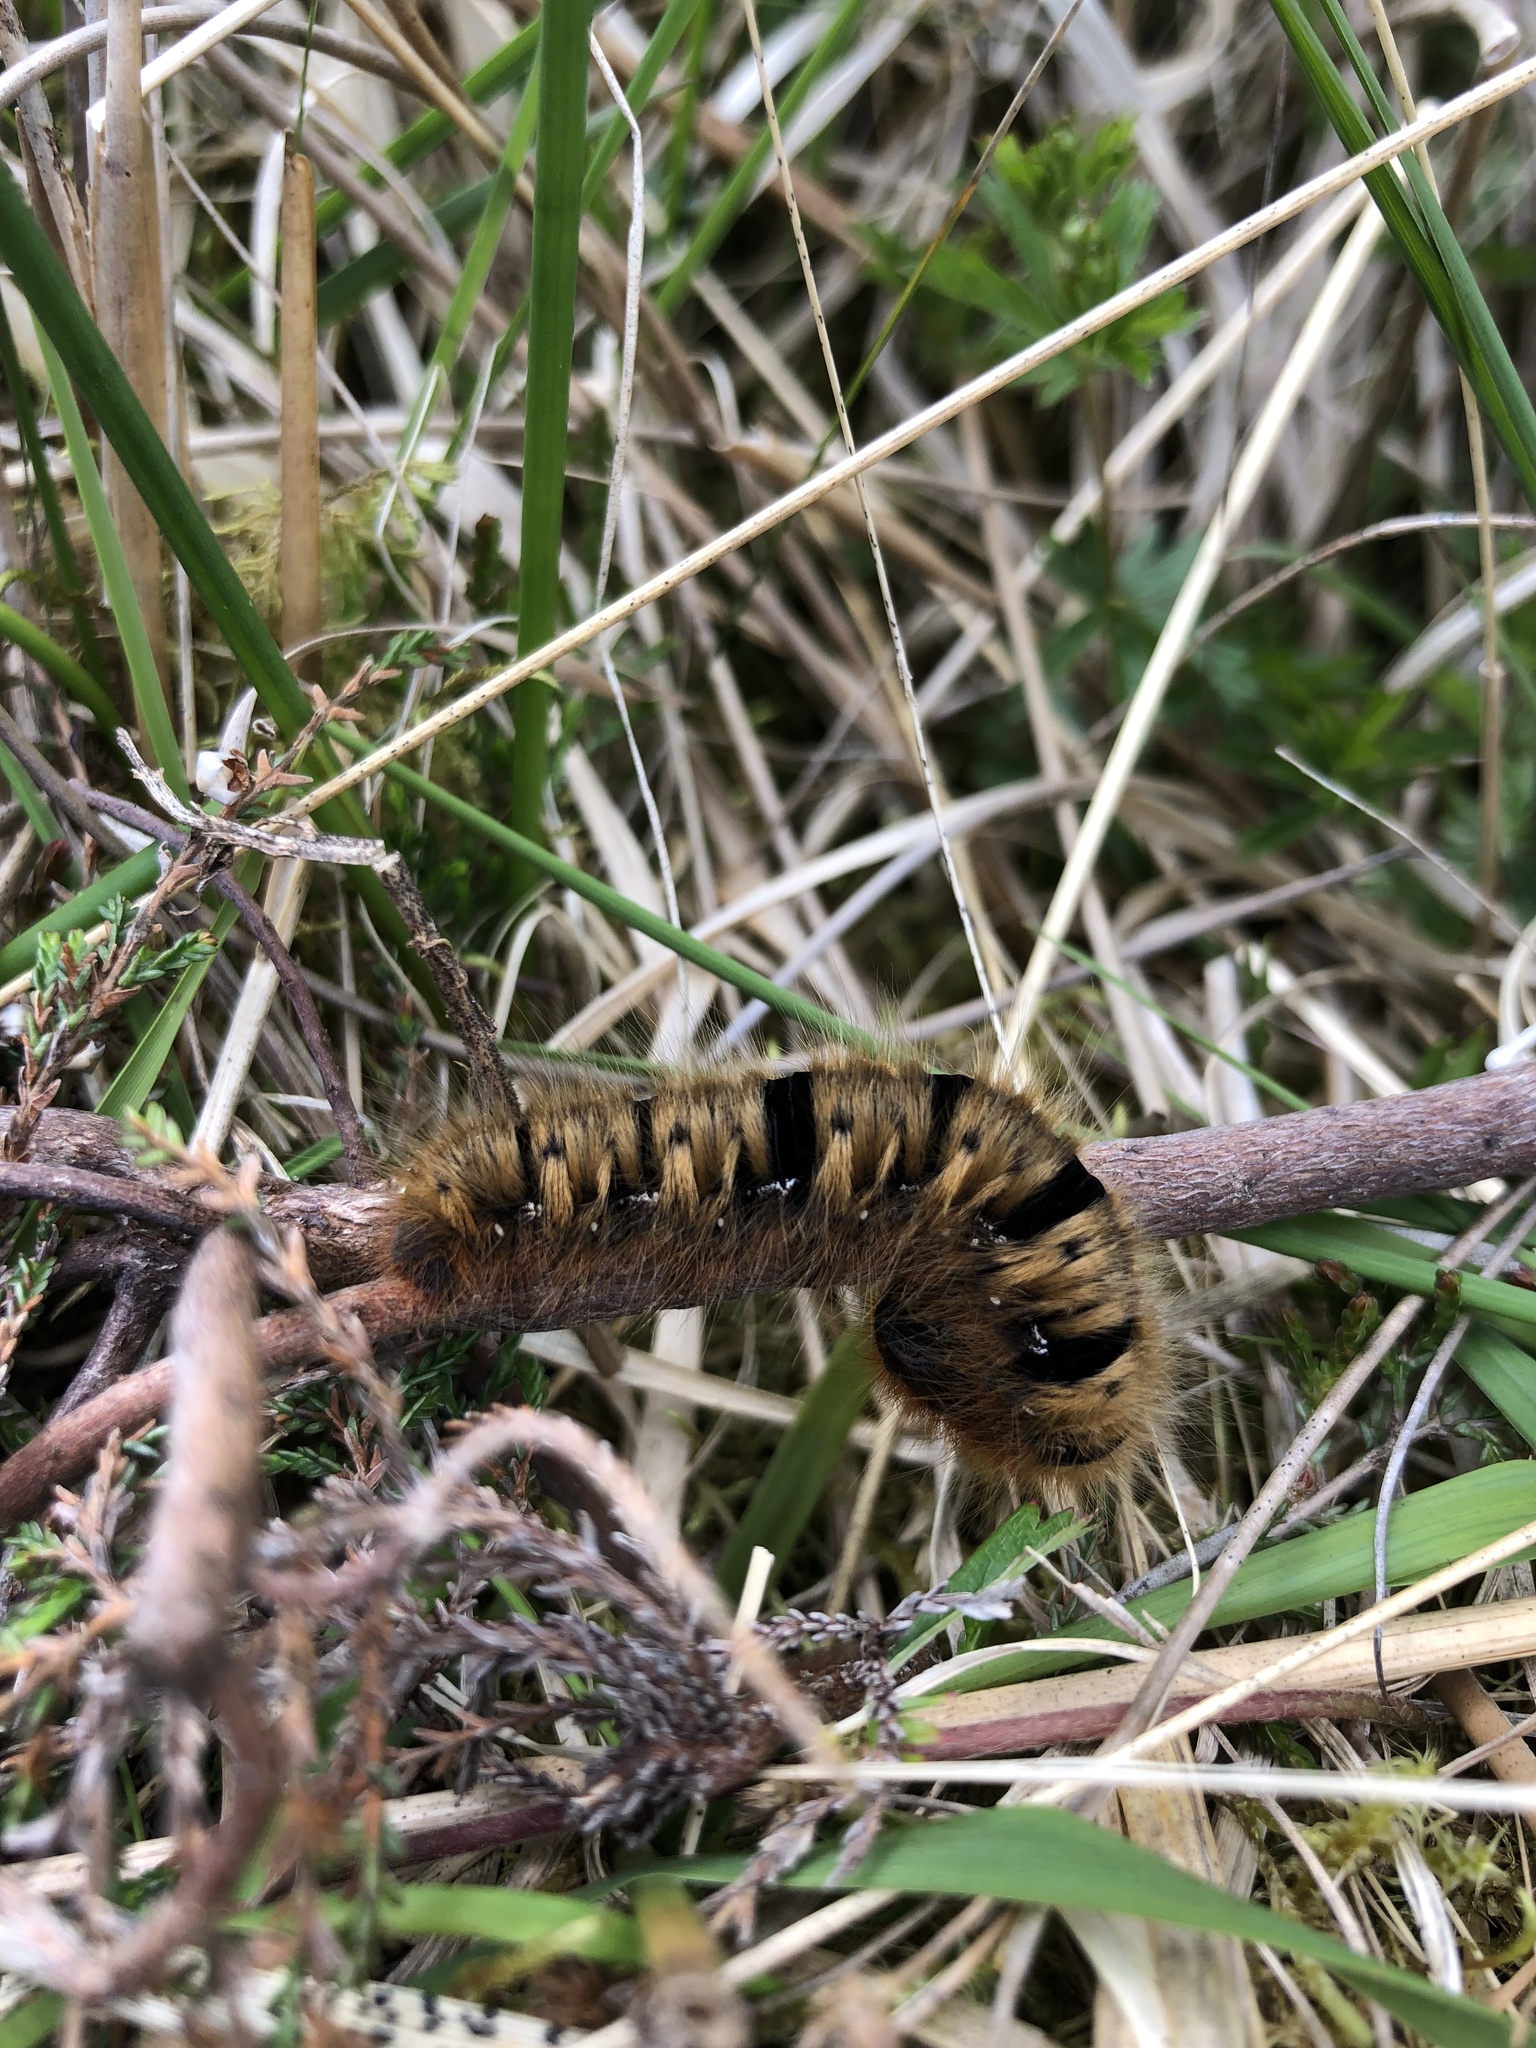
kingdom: Animalia
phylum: Arthropoda
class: Insecta
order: Lepidoptera
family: Lasiocampidae
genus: Lasiocampa
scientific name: Lasiocampa quercus
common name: Oak eggar
